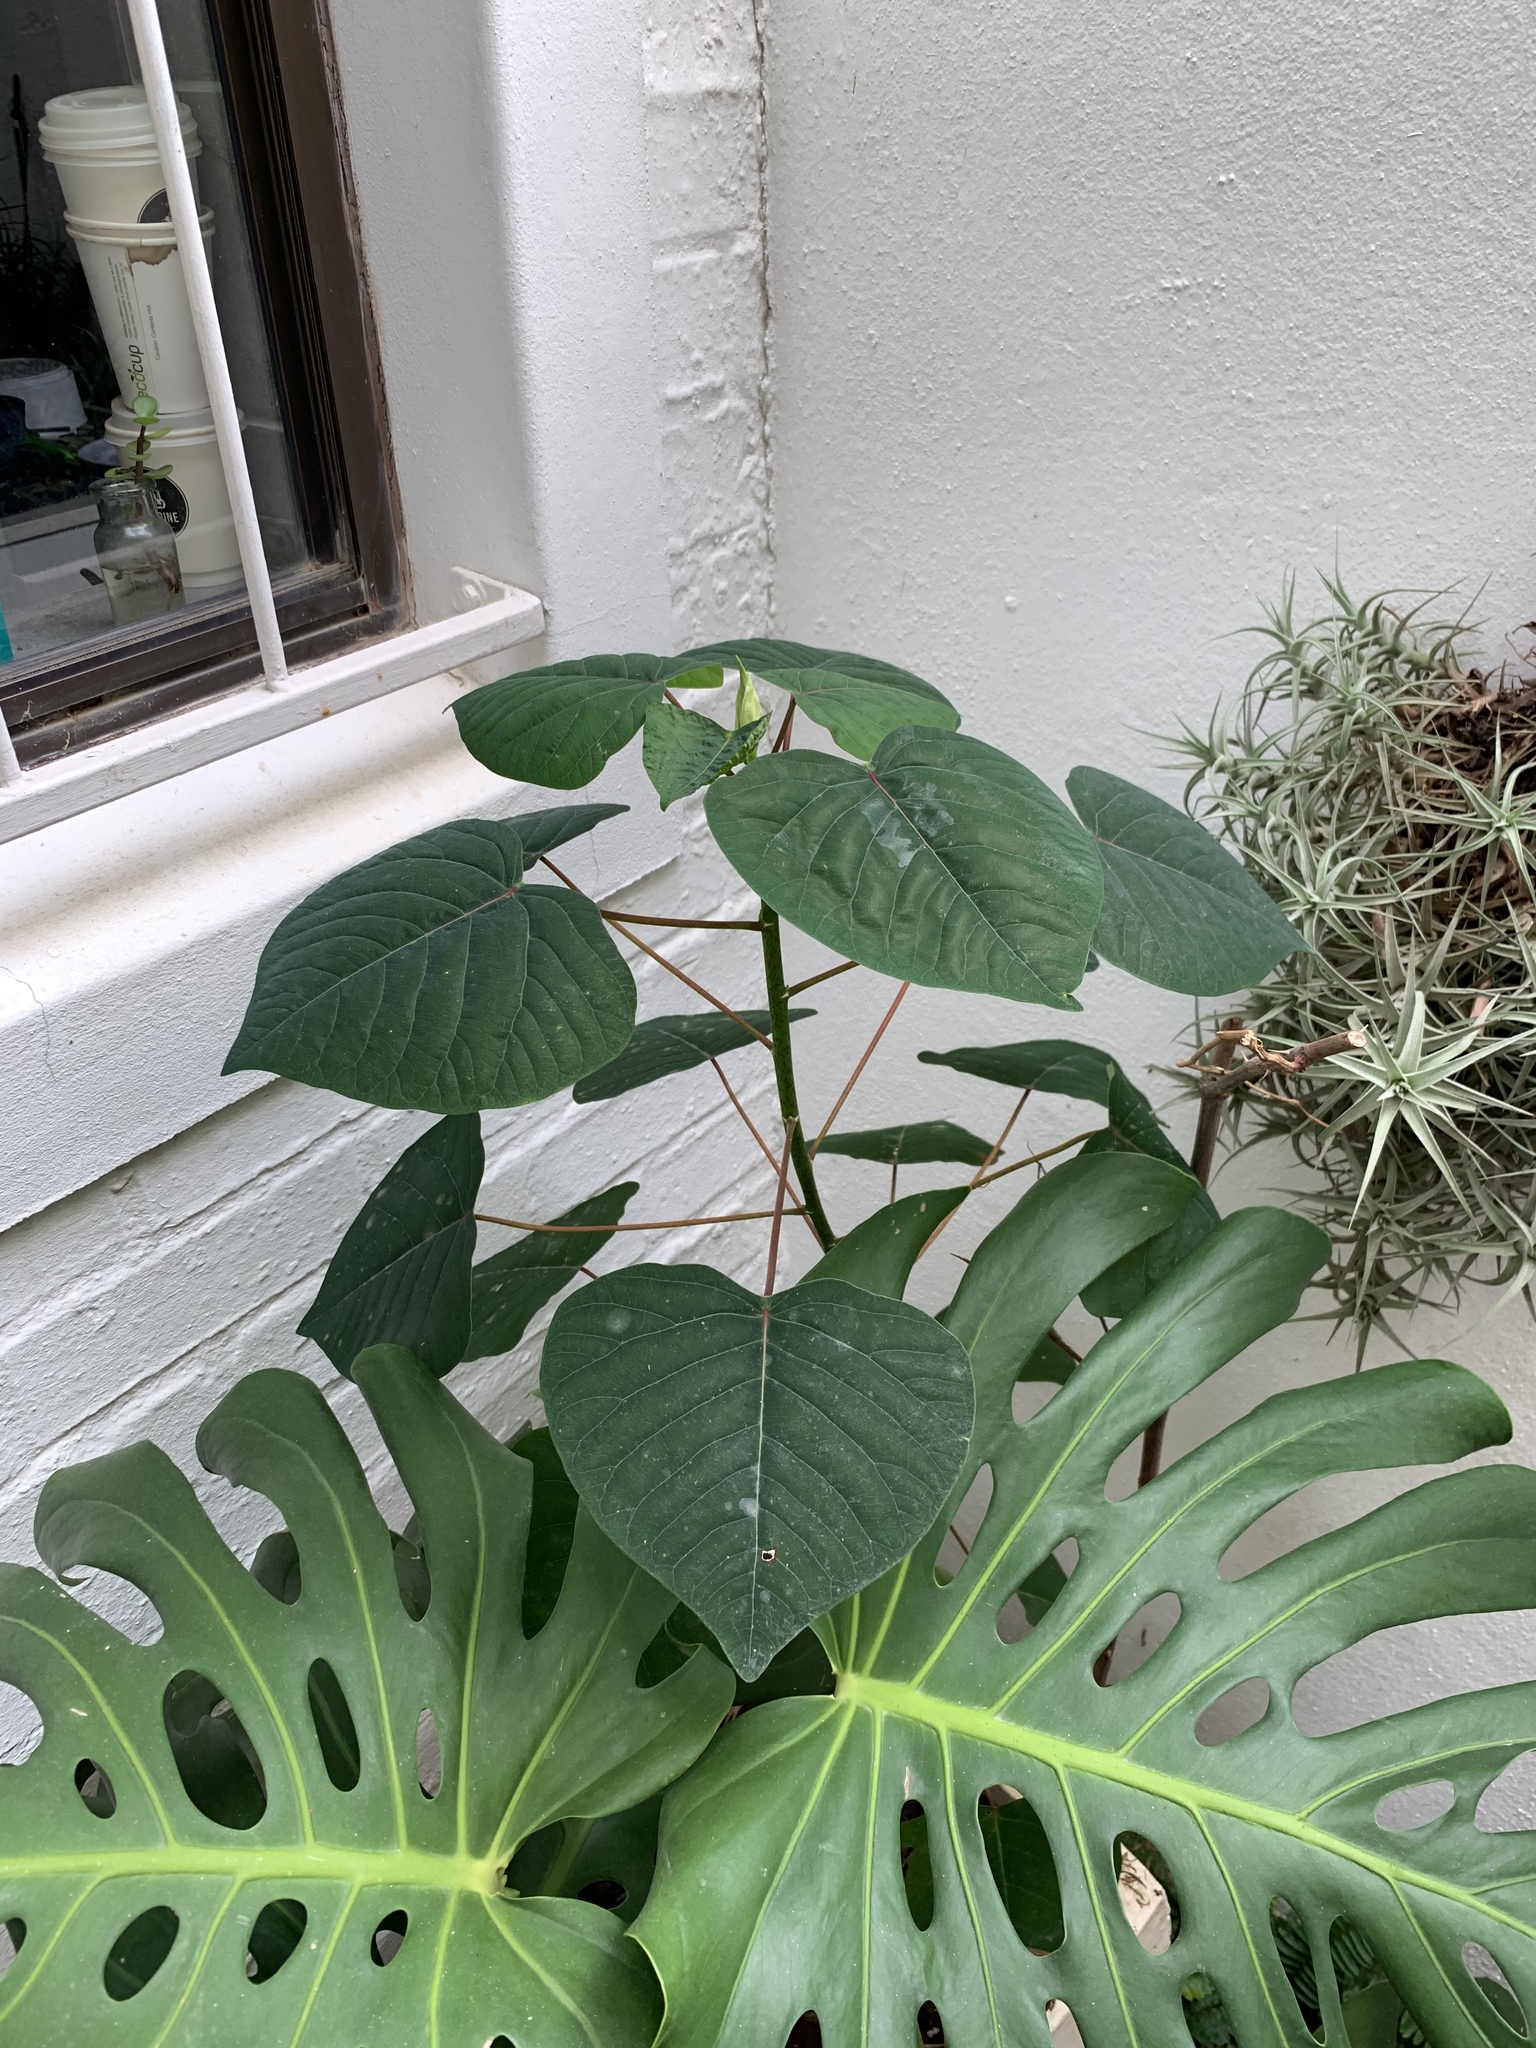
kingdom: Plantae
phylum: Tracheophyta
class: Magnoliopsida
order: Malpighiales
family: Euphorbiaceae
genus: Homalanthus
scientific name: Homalanthus populifolius
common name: Queensland poplar
